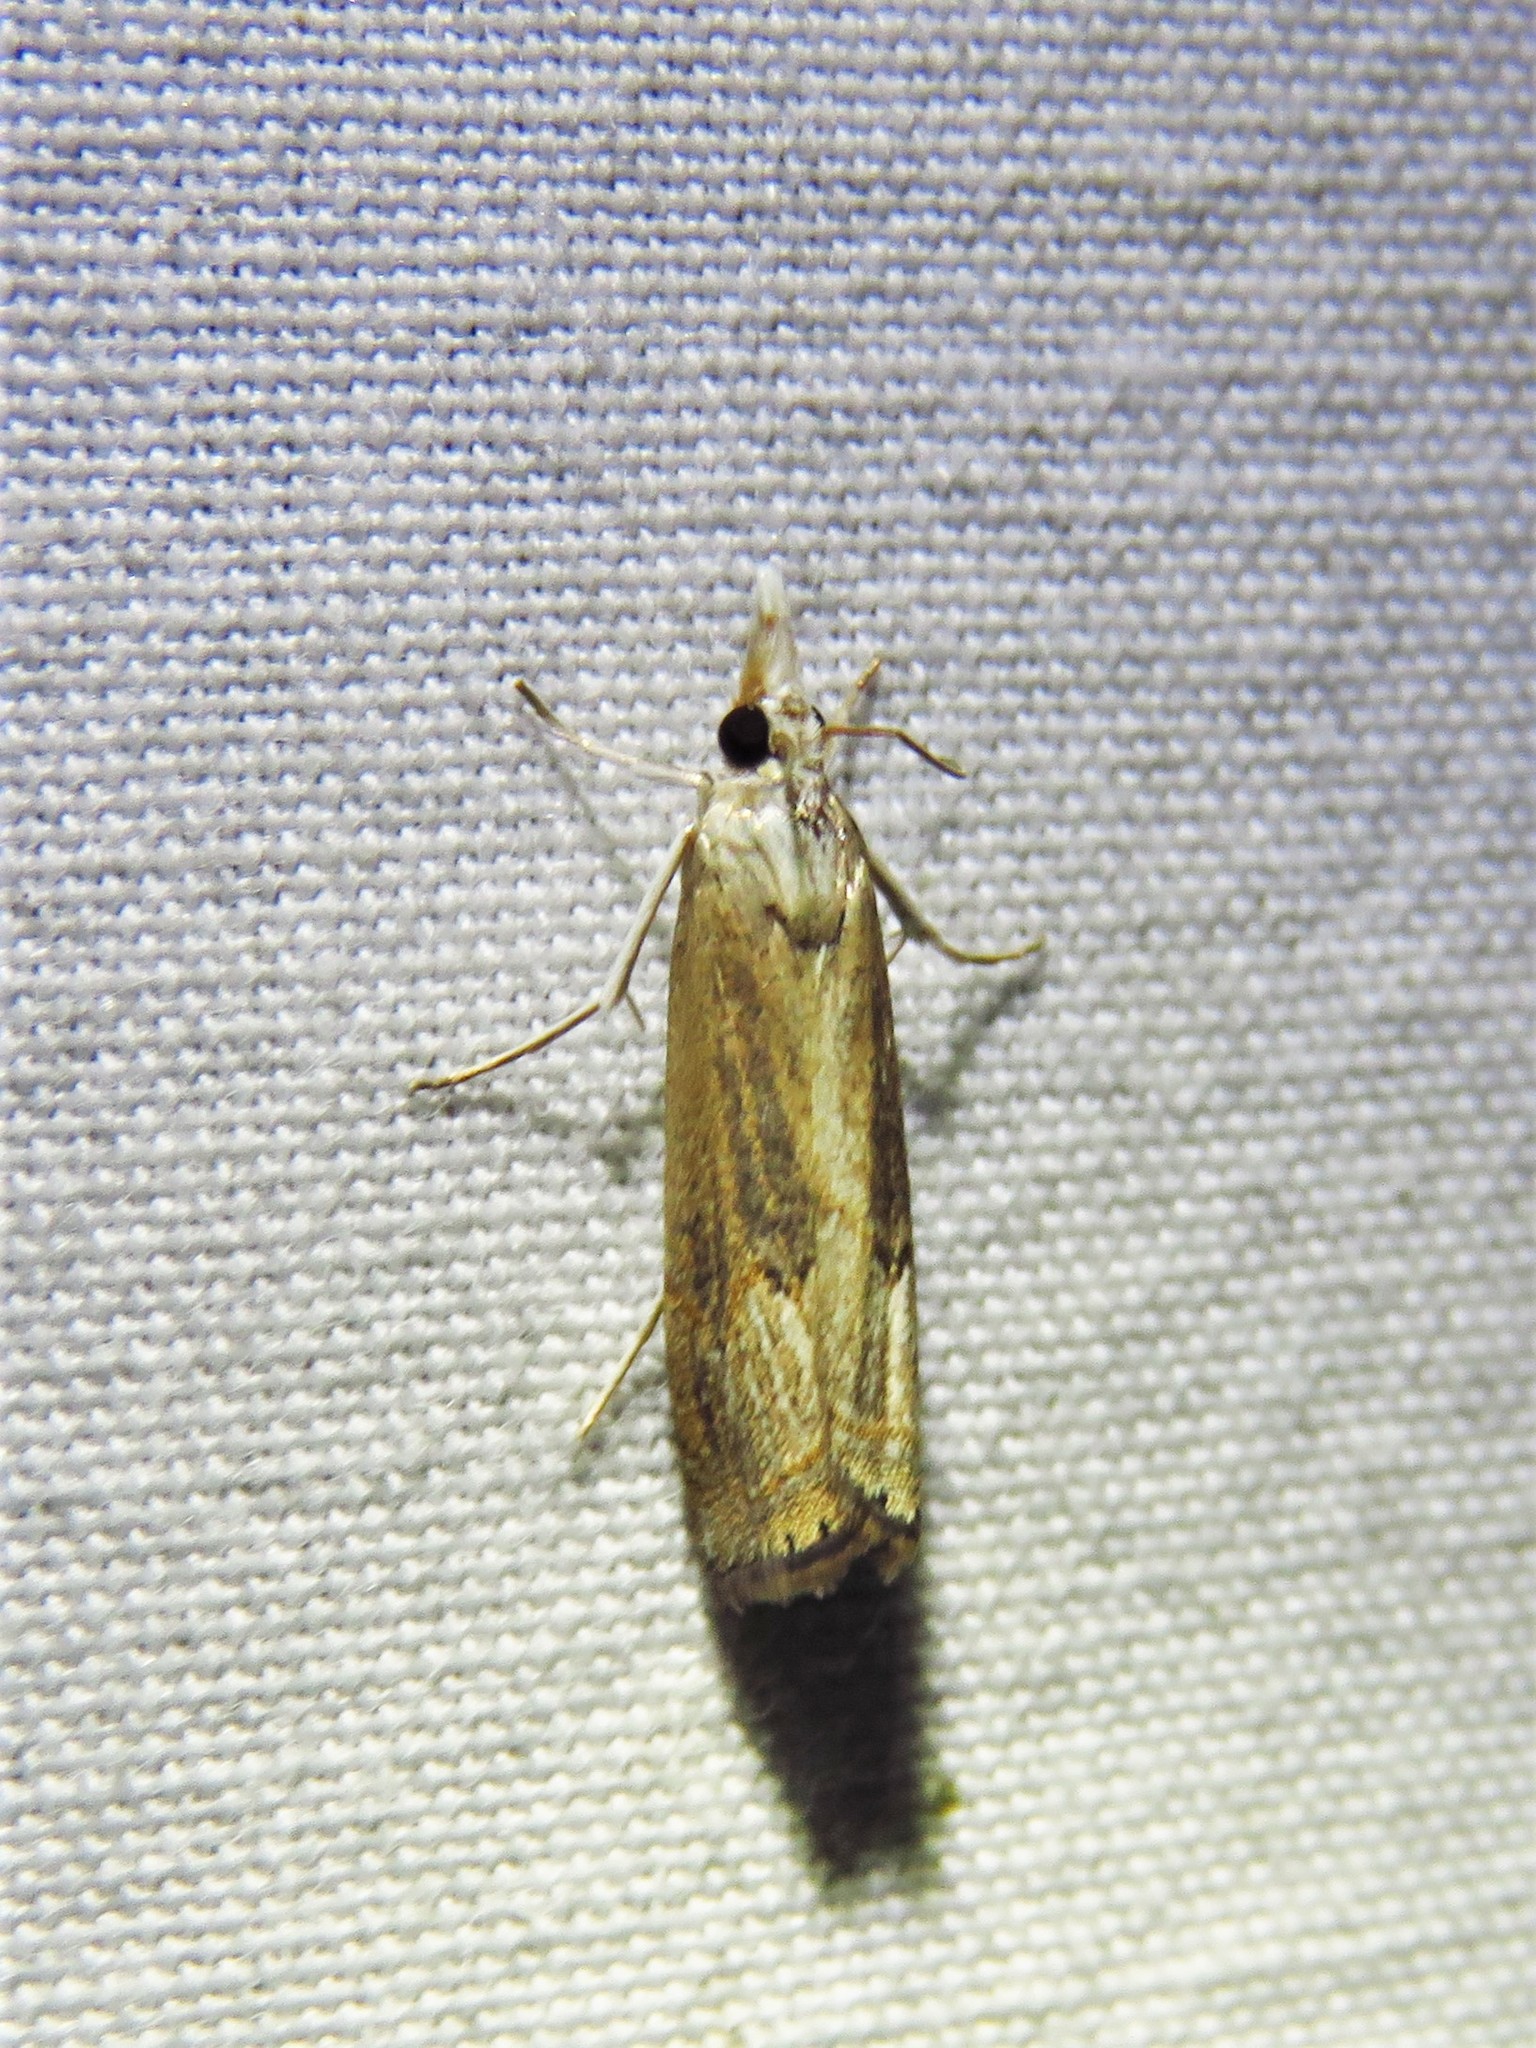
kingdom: Animalia
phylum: Arthropoda
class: Insecta
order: Lepidoptera
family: Crambidae
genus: Parapediasia
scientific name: Parapediasia teterellus
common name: Bluegrass webworm moth
